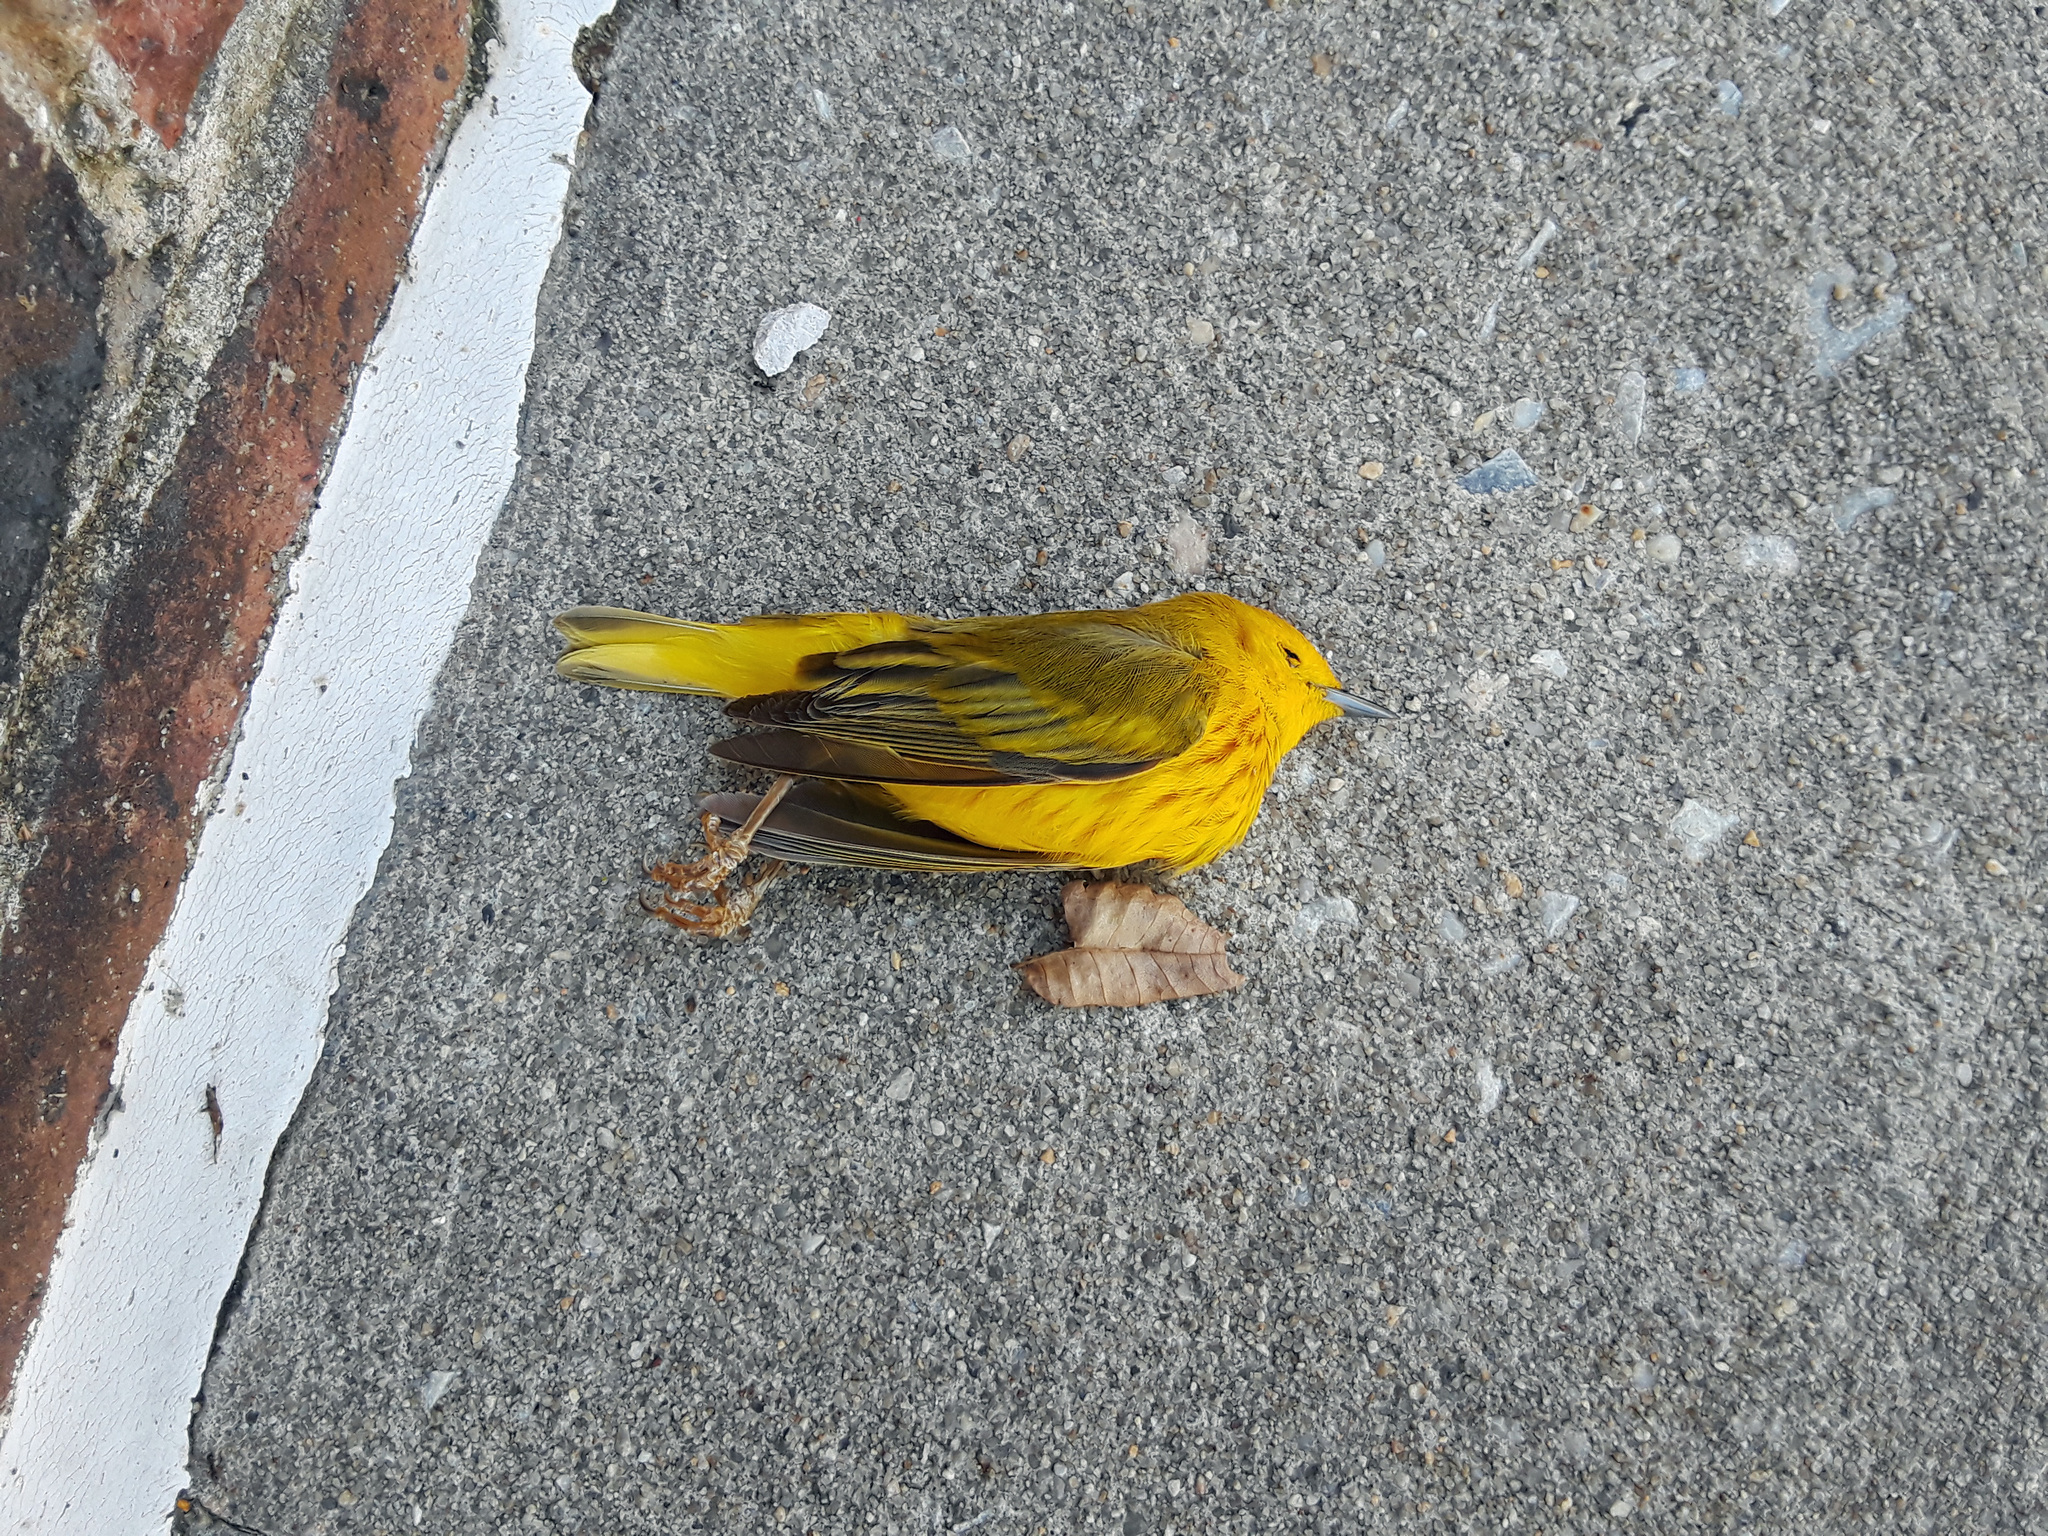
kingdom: Animalia
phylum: Chordata
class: Aves
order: Passeriformes
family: Parulidae
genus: Setophaga
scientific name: Setophaga petechia
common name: Yellow warbler
